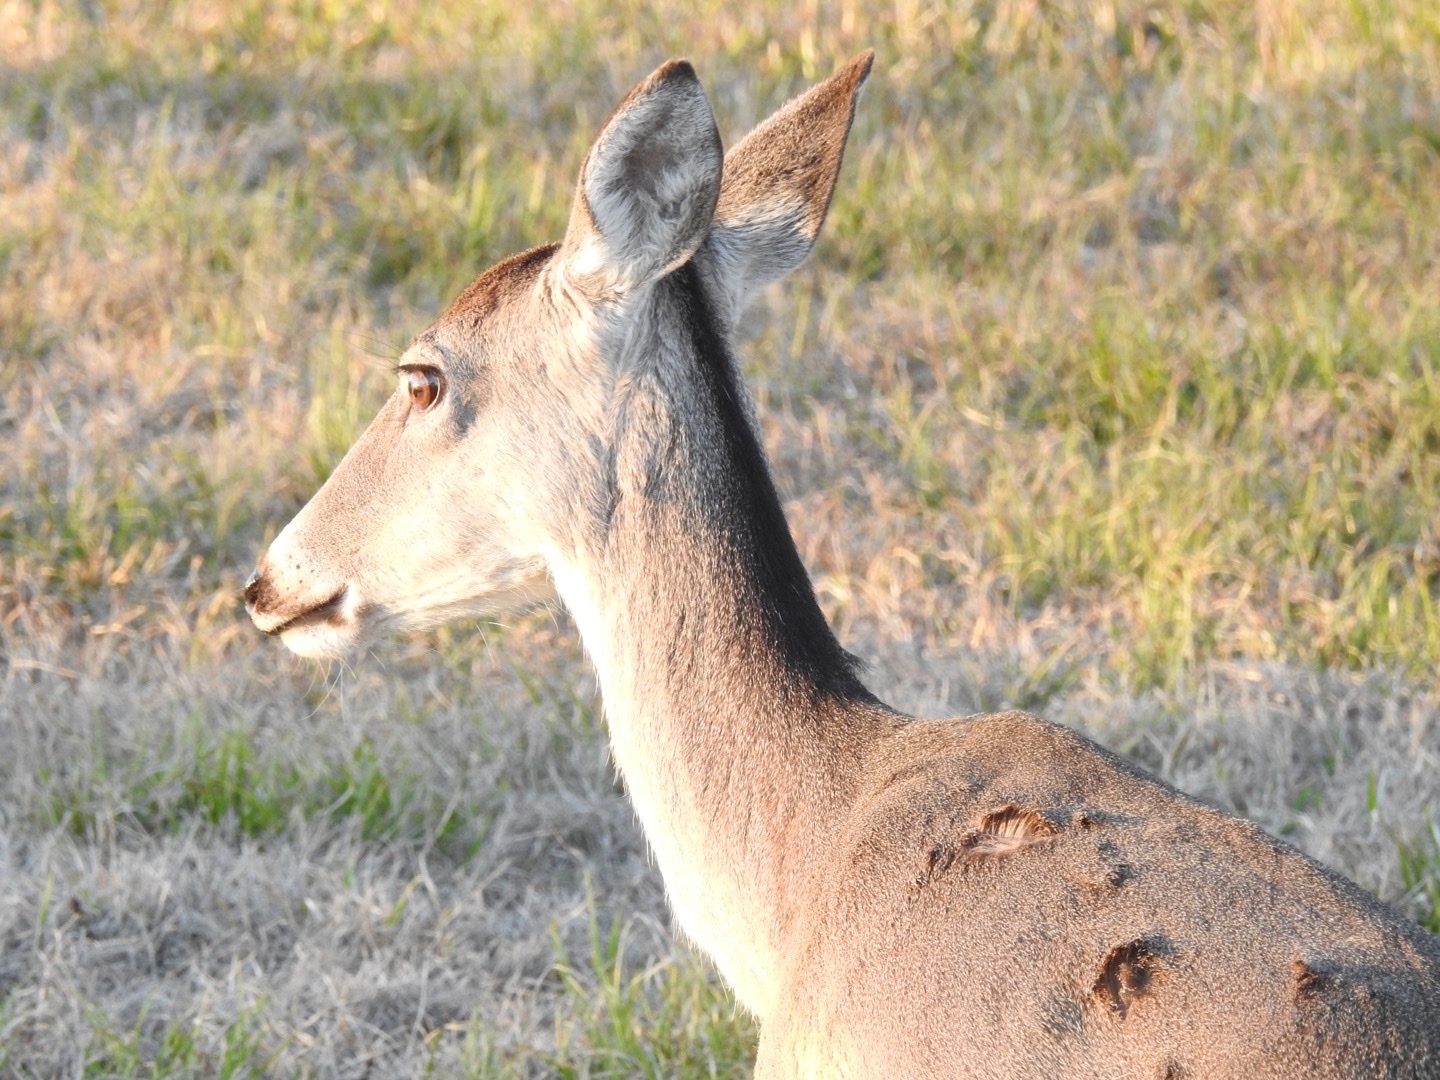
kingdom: Animalia
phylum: Chordata
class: Mammalia
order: Artiodactyla
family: Cervidae
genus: Odocoileus
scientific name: Odocoileus virginianus
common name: White-tailed deer
